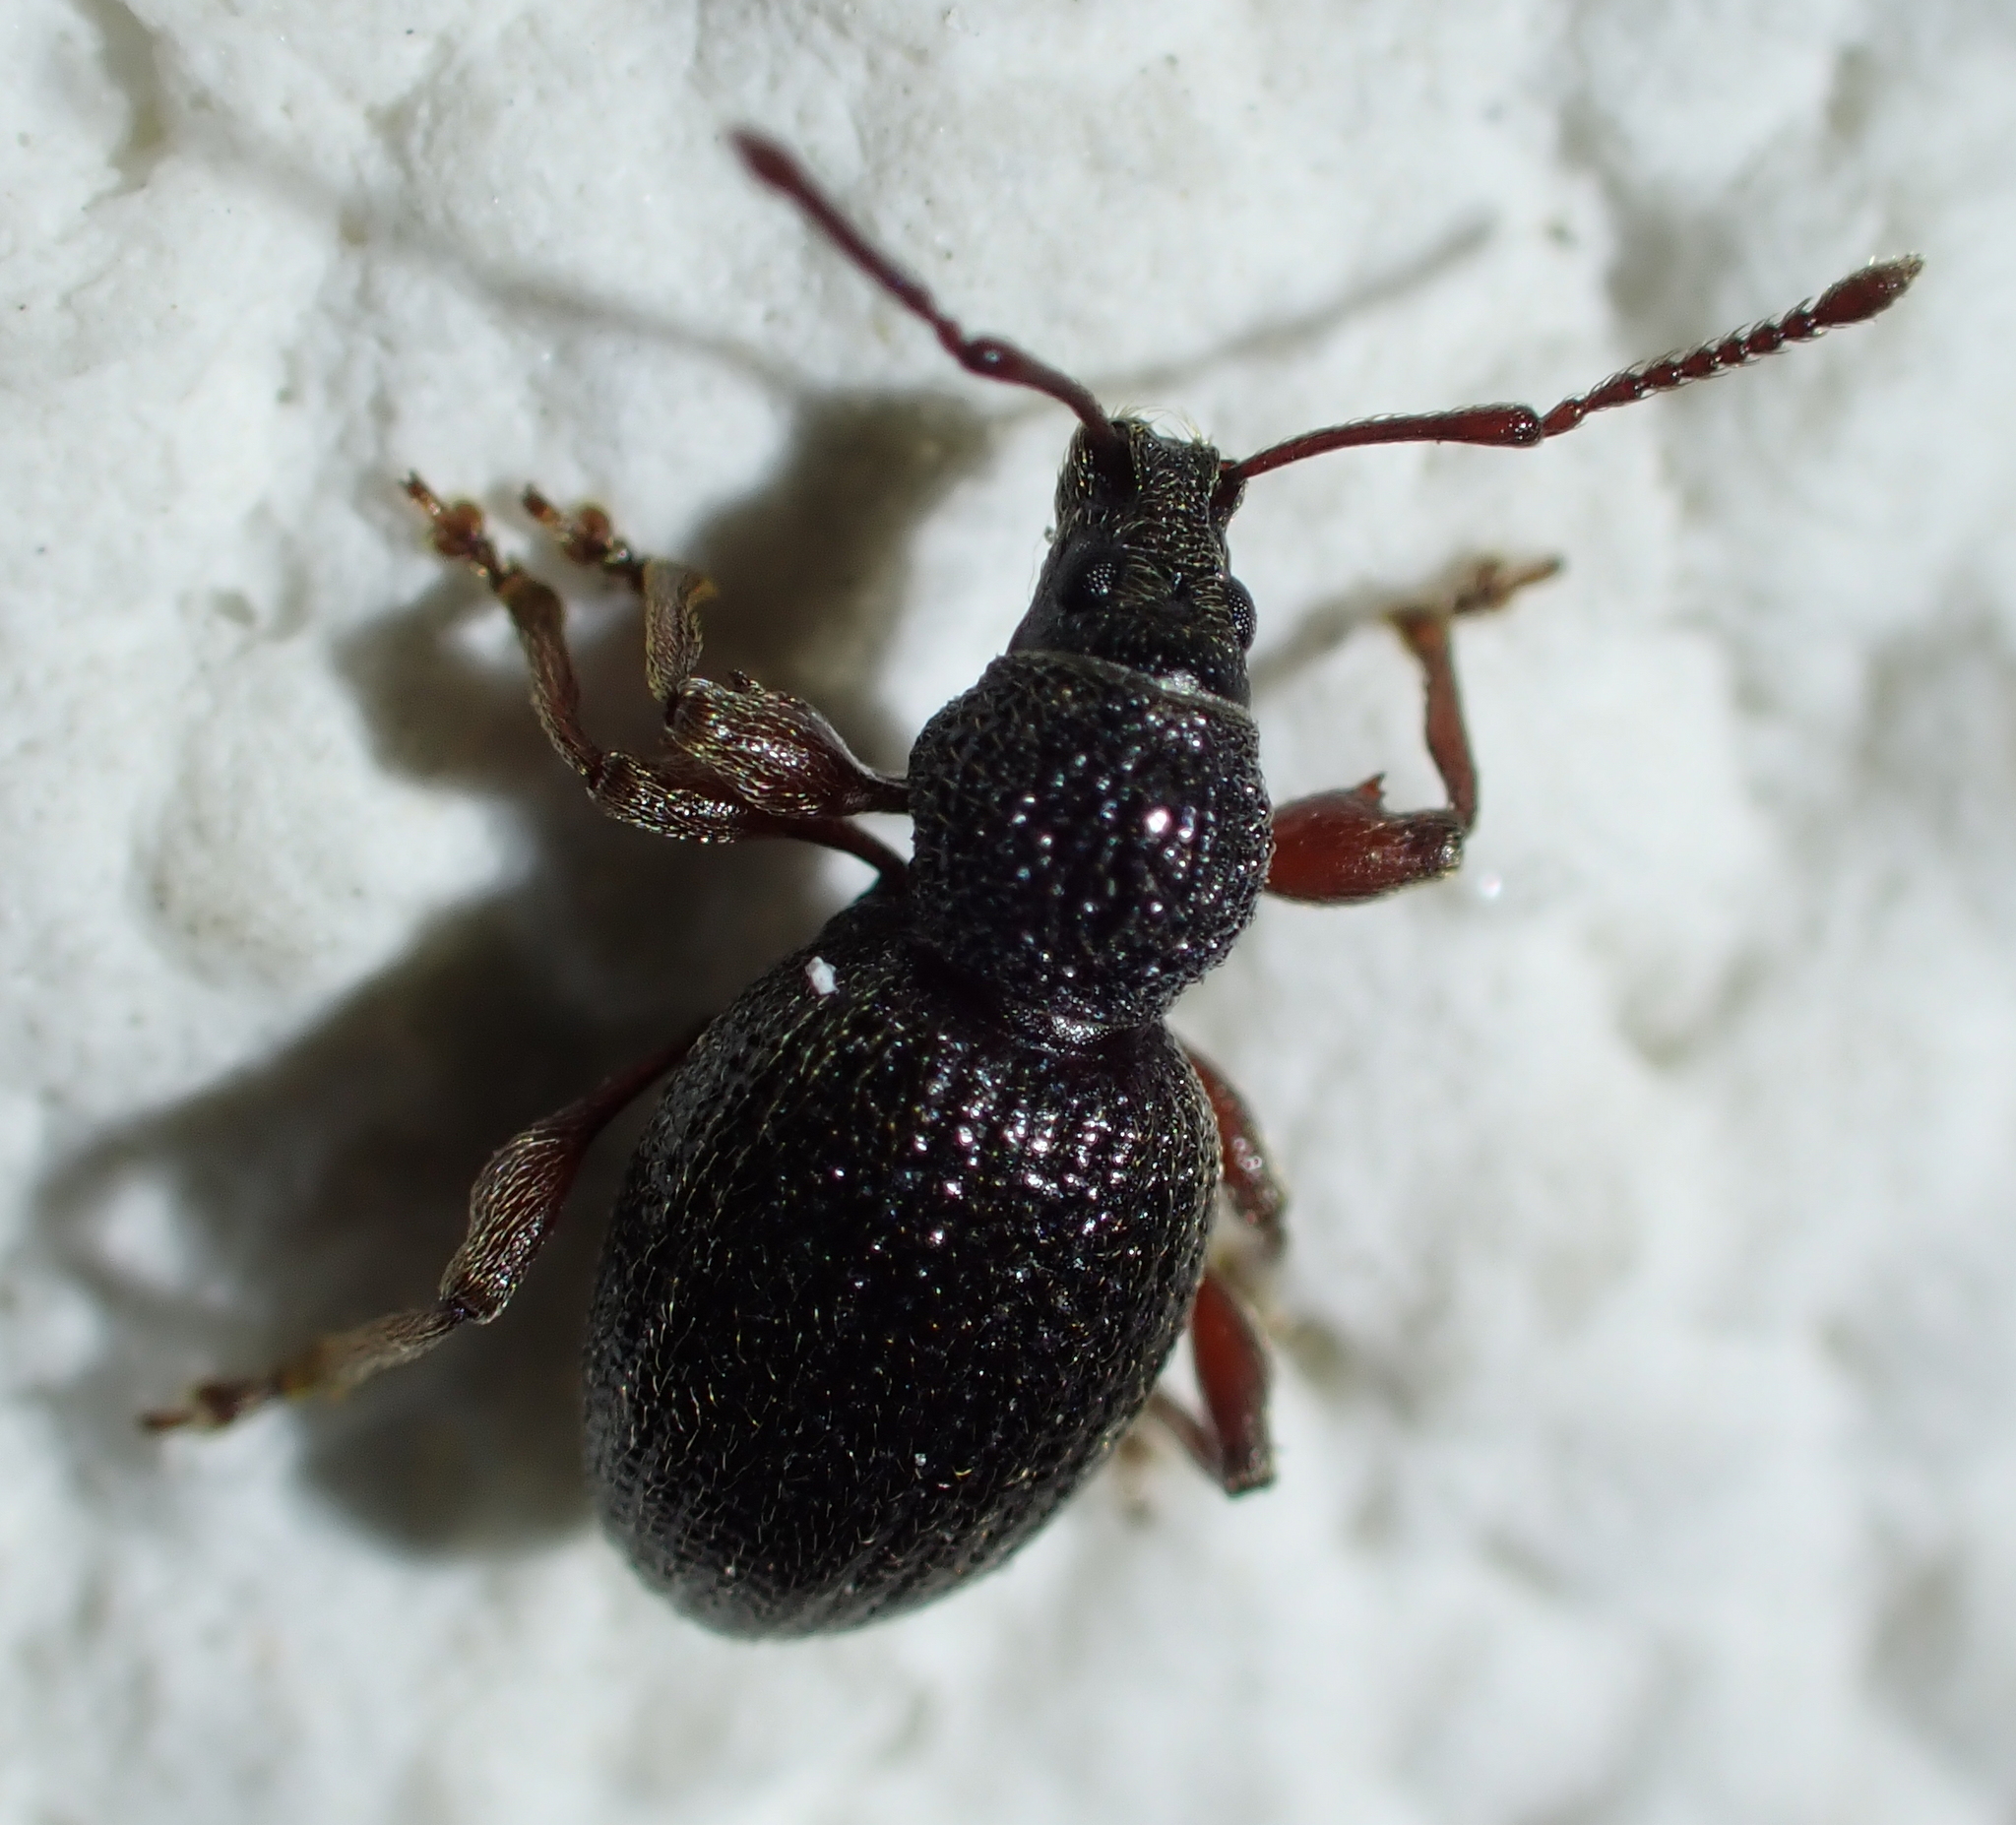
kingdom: Animalia
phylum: Arthropoda
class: Insecta
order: Coleoptera
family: Curculionidae
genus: Otiorhynchus
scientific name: Otiorhynchus ovatus
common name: Strawberry root weevil
